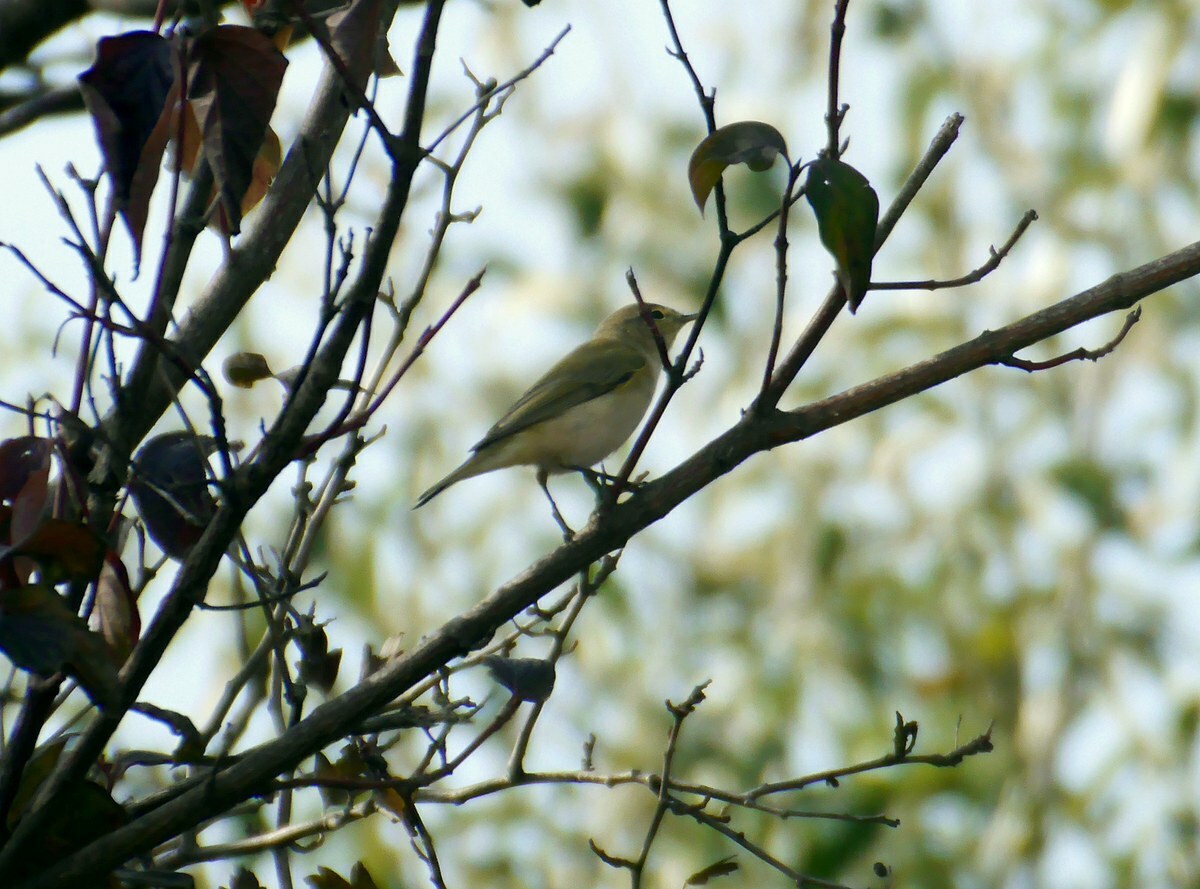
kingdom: Animalia
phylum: Chordata
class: Aves
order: Passeriformes
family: Phylloscopidae
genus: Phylloscopus
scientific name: Phylloscopus collybita
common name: Common chiffchaff
